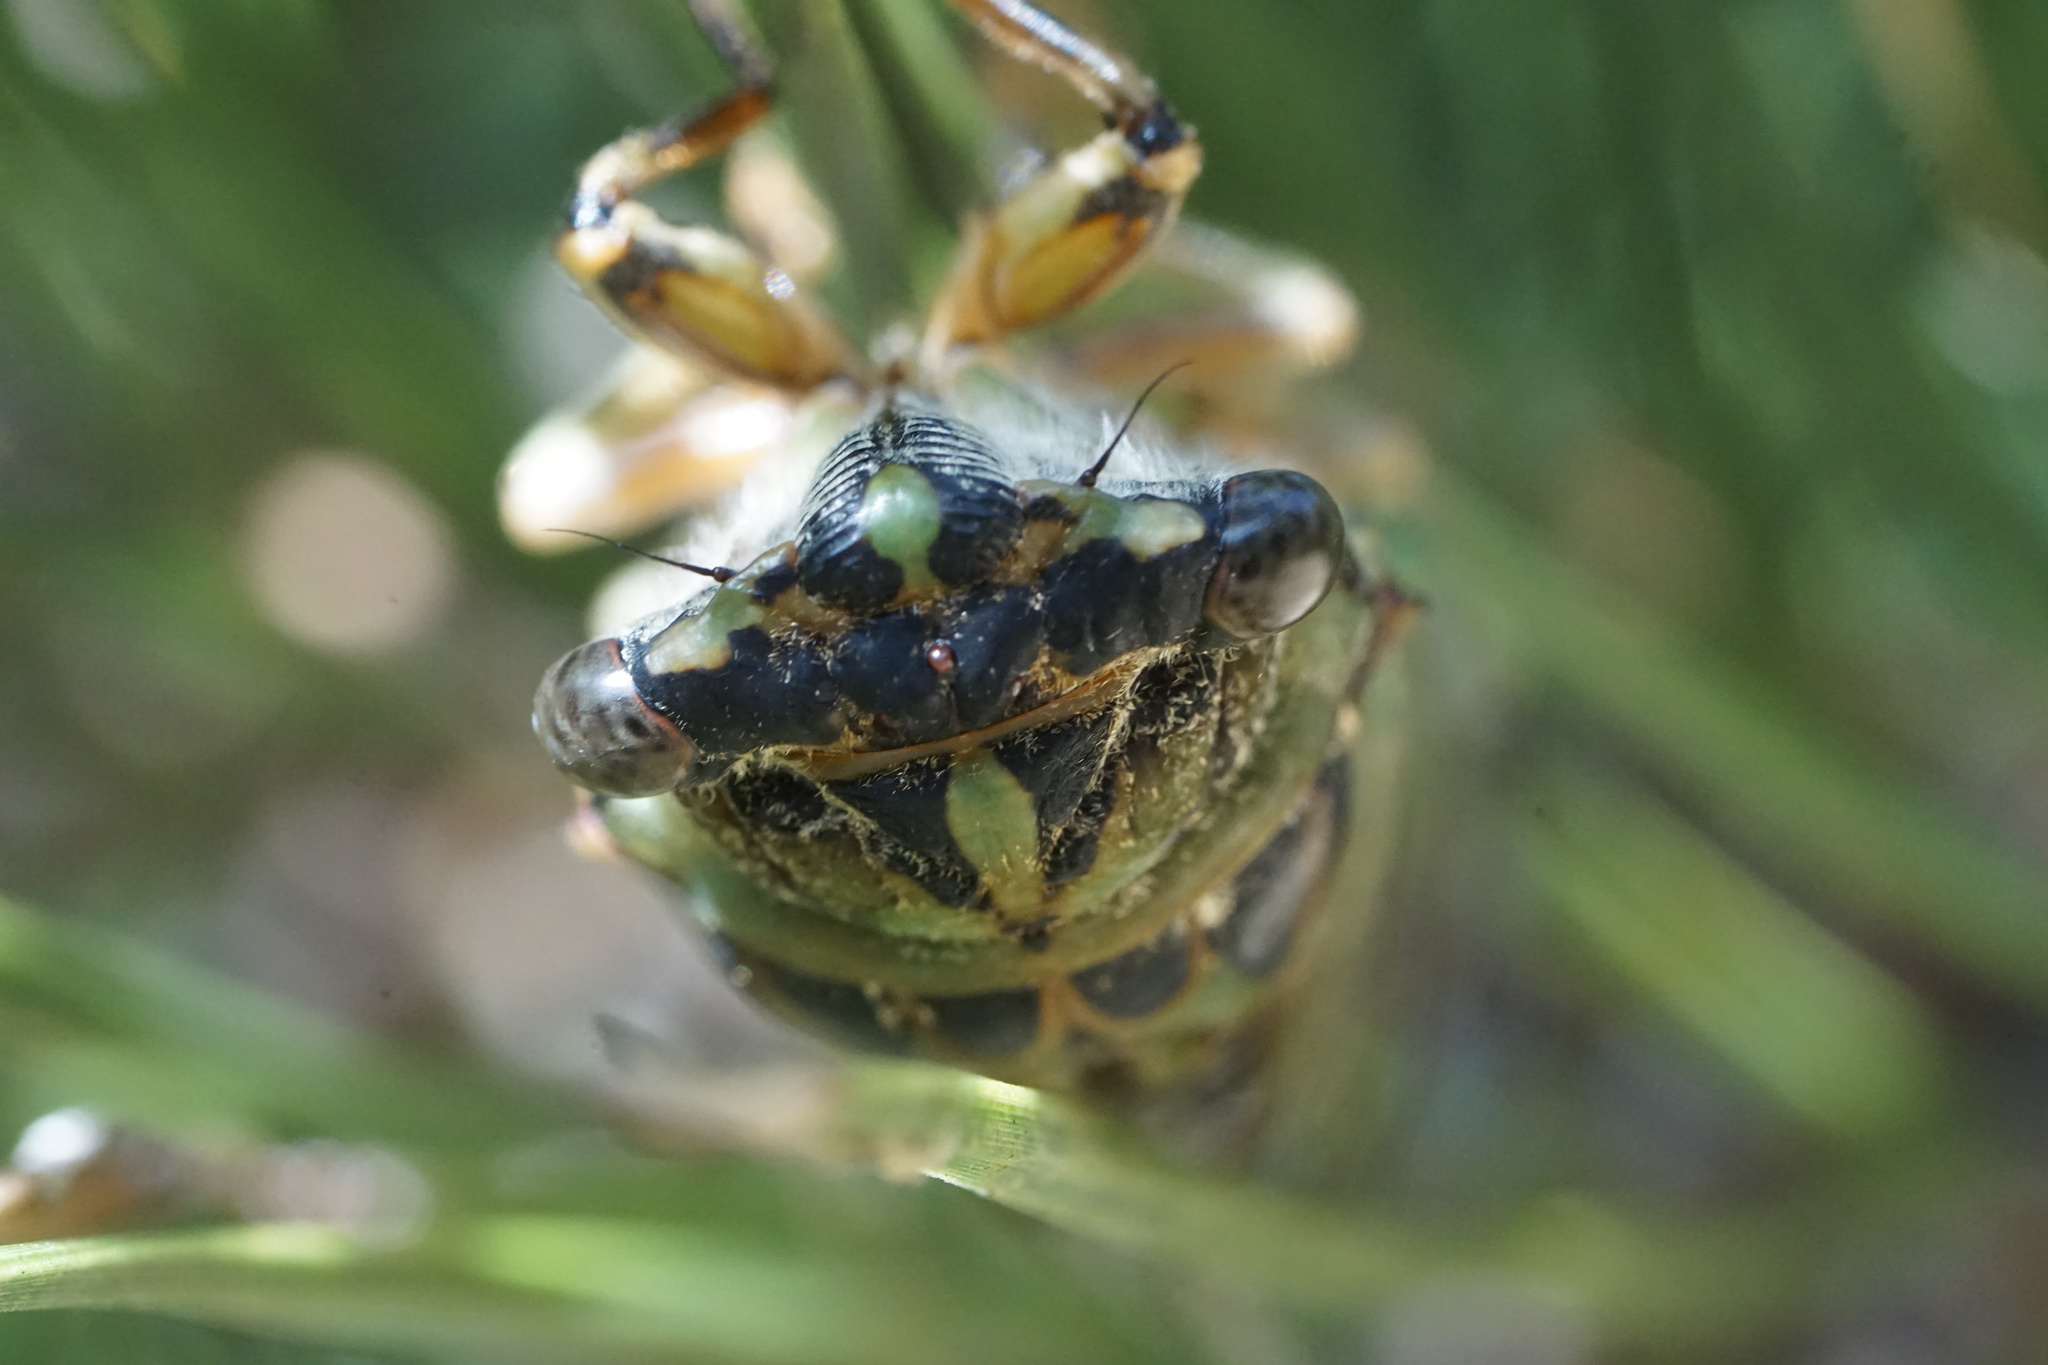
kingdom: Animalia
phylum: Arthropoda
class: Insecta
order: Hemiptera
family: Cicadidae
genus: Neotibicen
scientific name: Neotibicen canicularis
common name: God-day cicada
